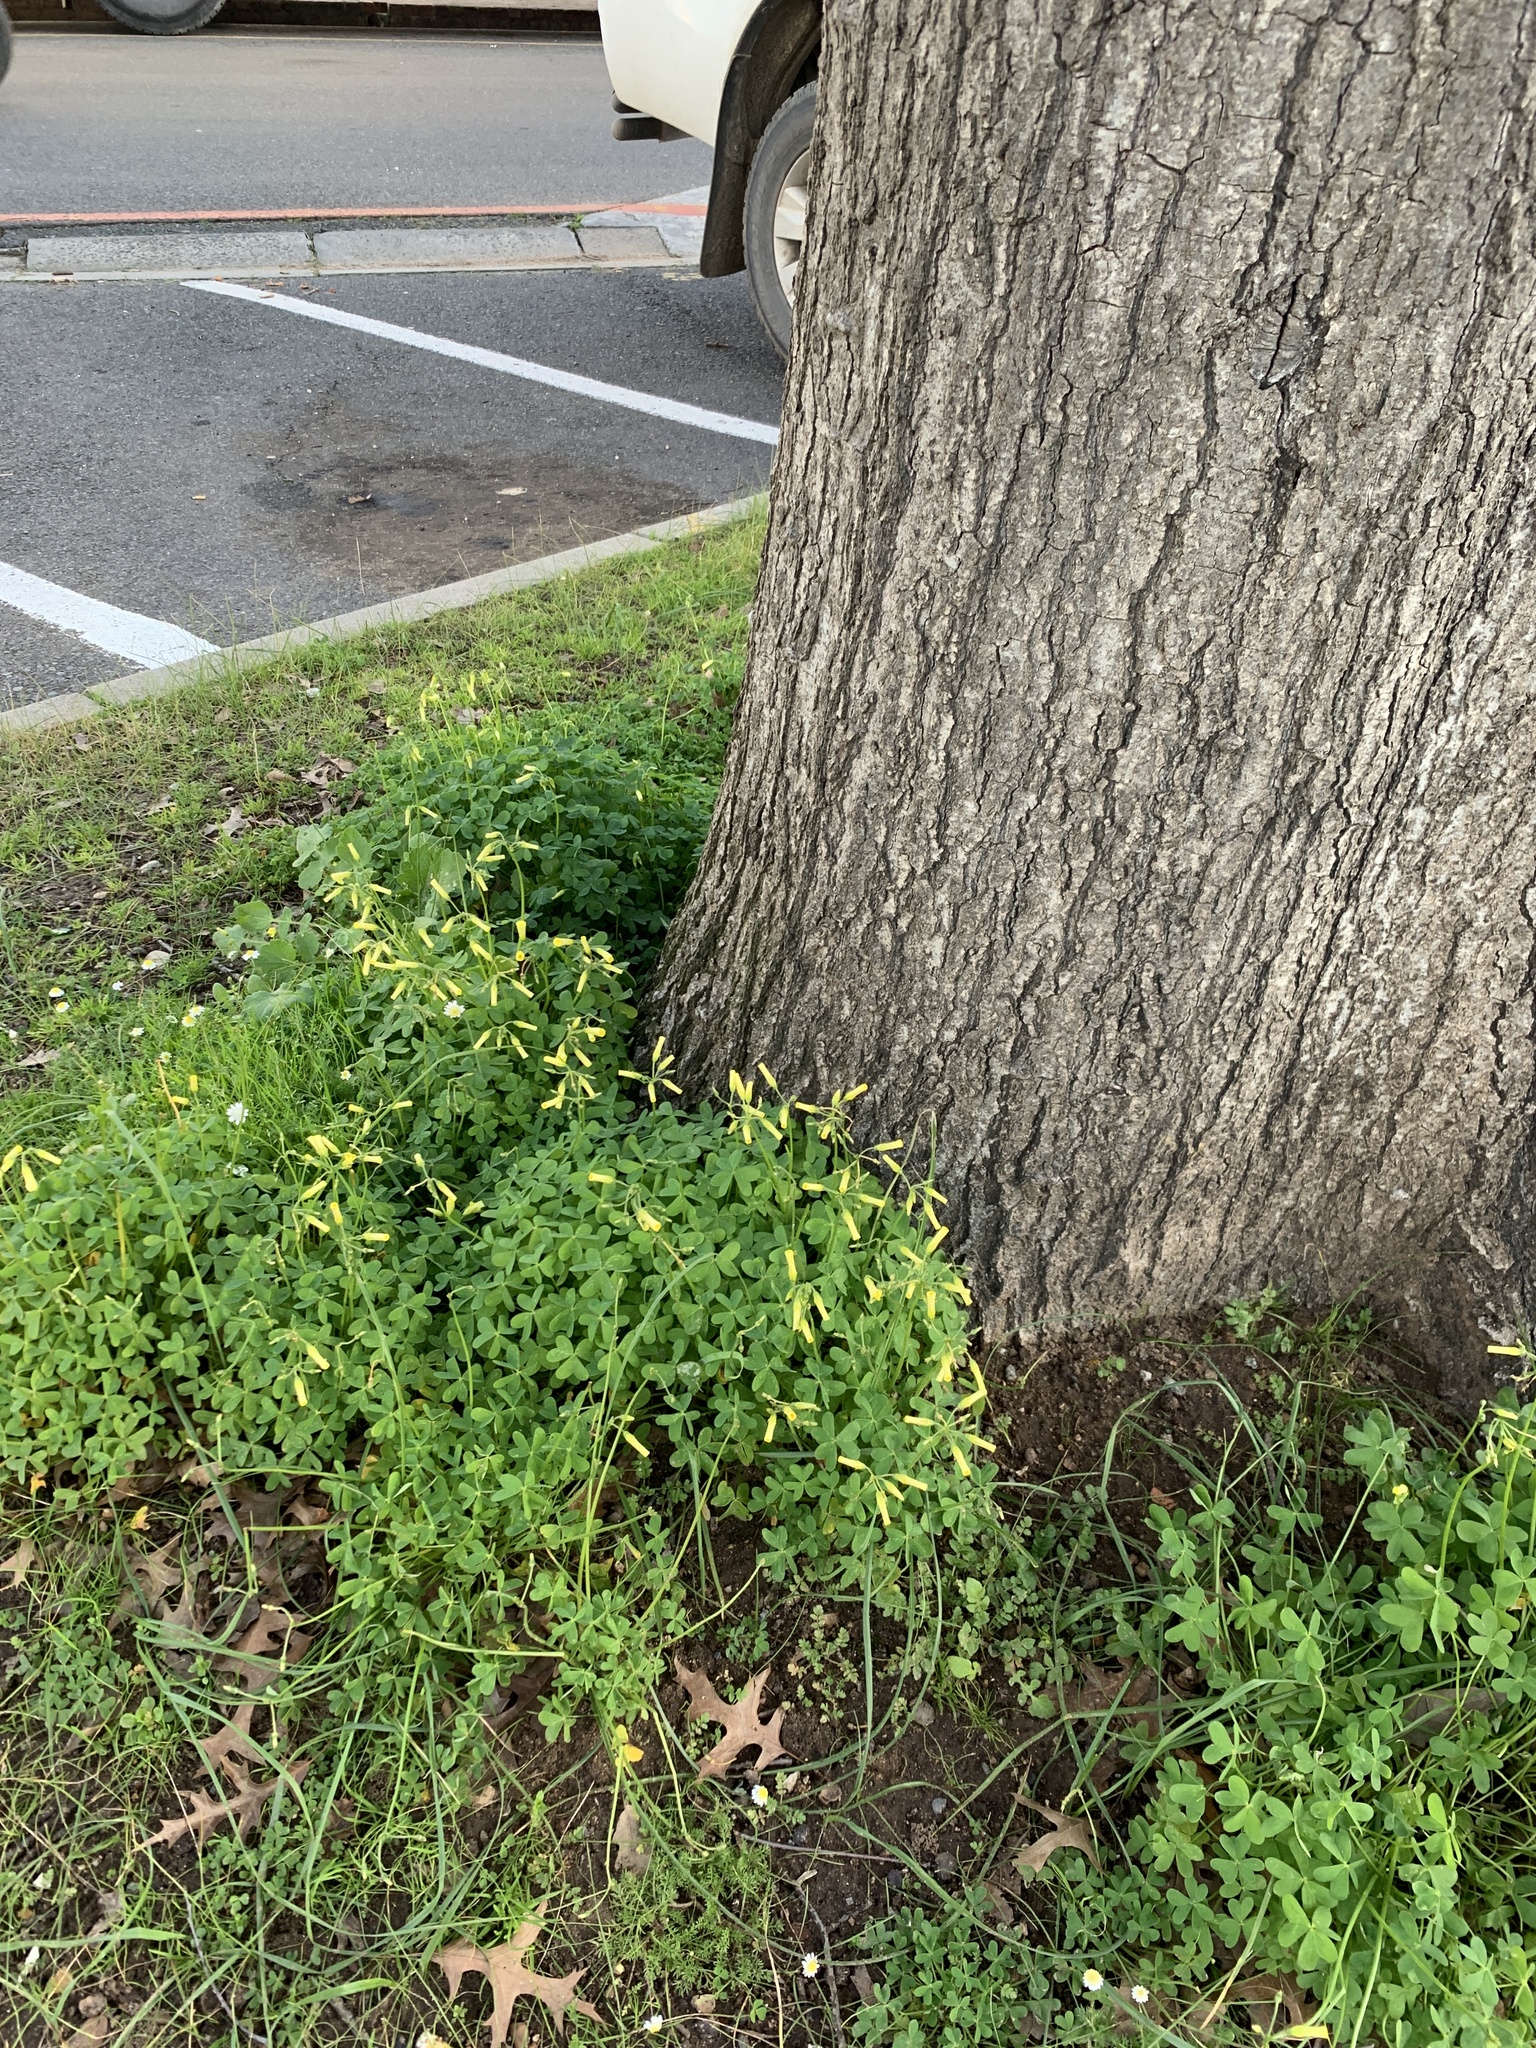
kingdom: Plantae
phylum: Tracheophyta
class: Magnoliopsida
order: Oxalidales
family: Oxalidaceae
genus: Oxalis
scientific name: Oxalis pes-caprae
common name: Bermuda-buttercup
